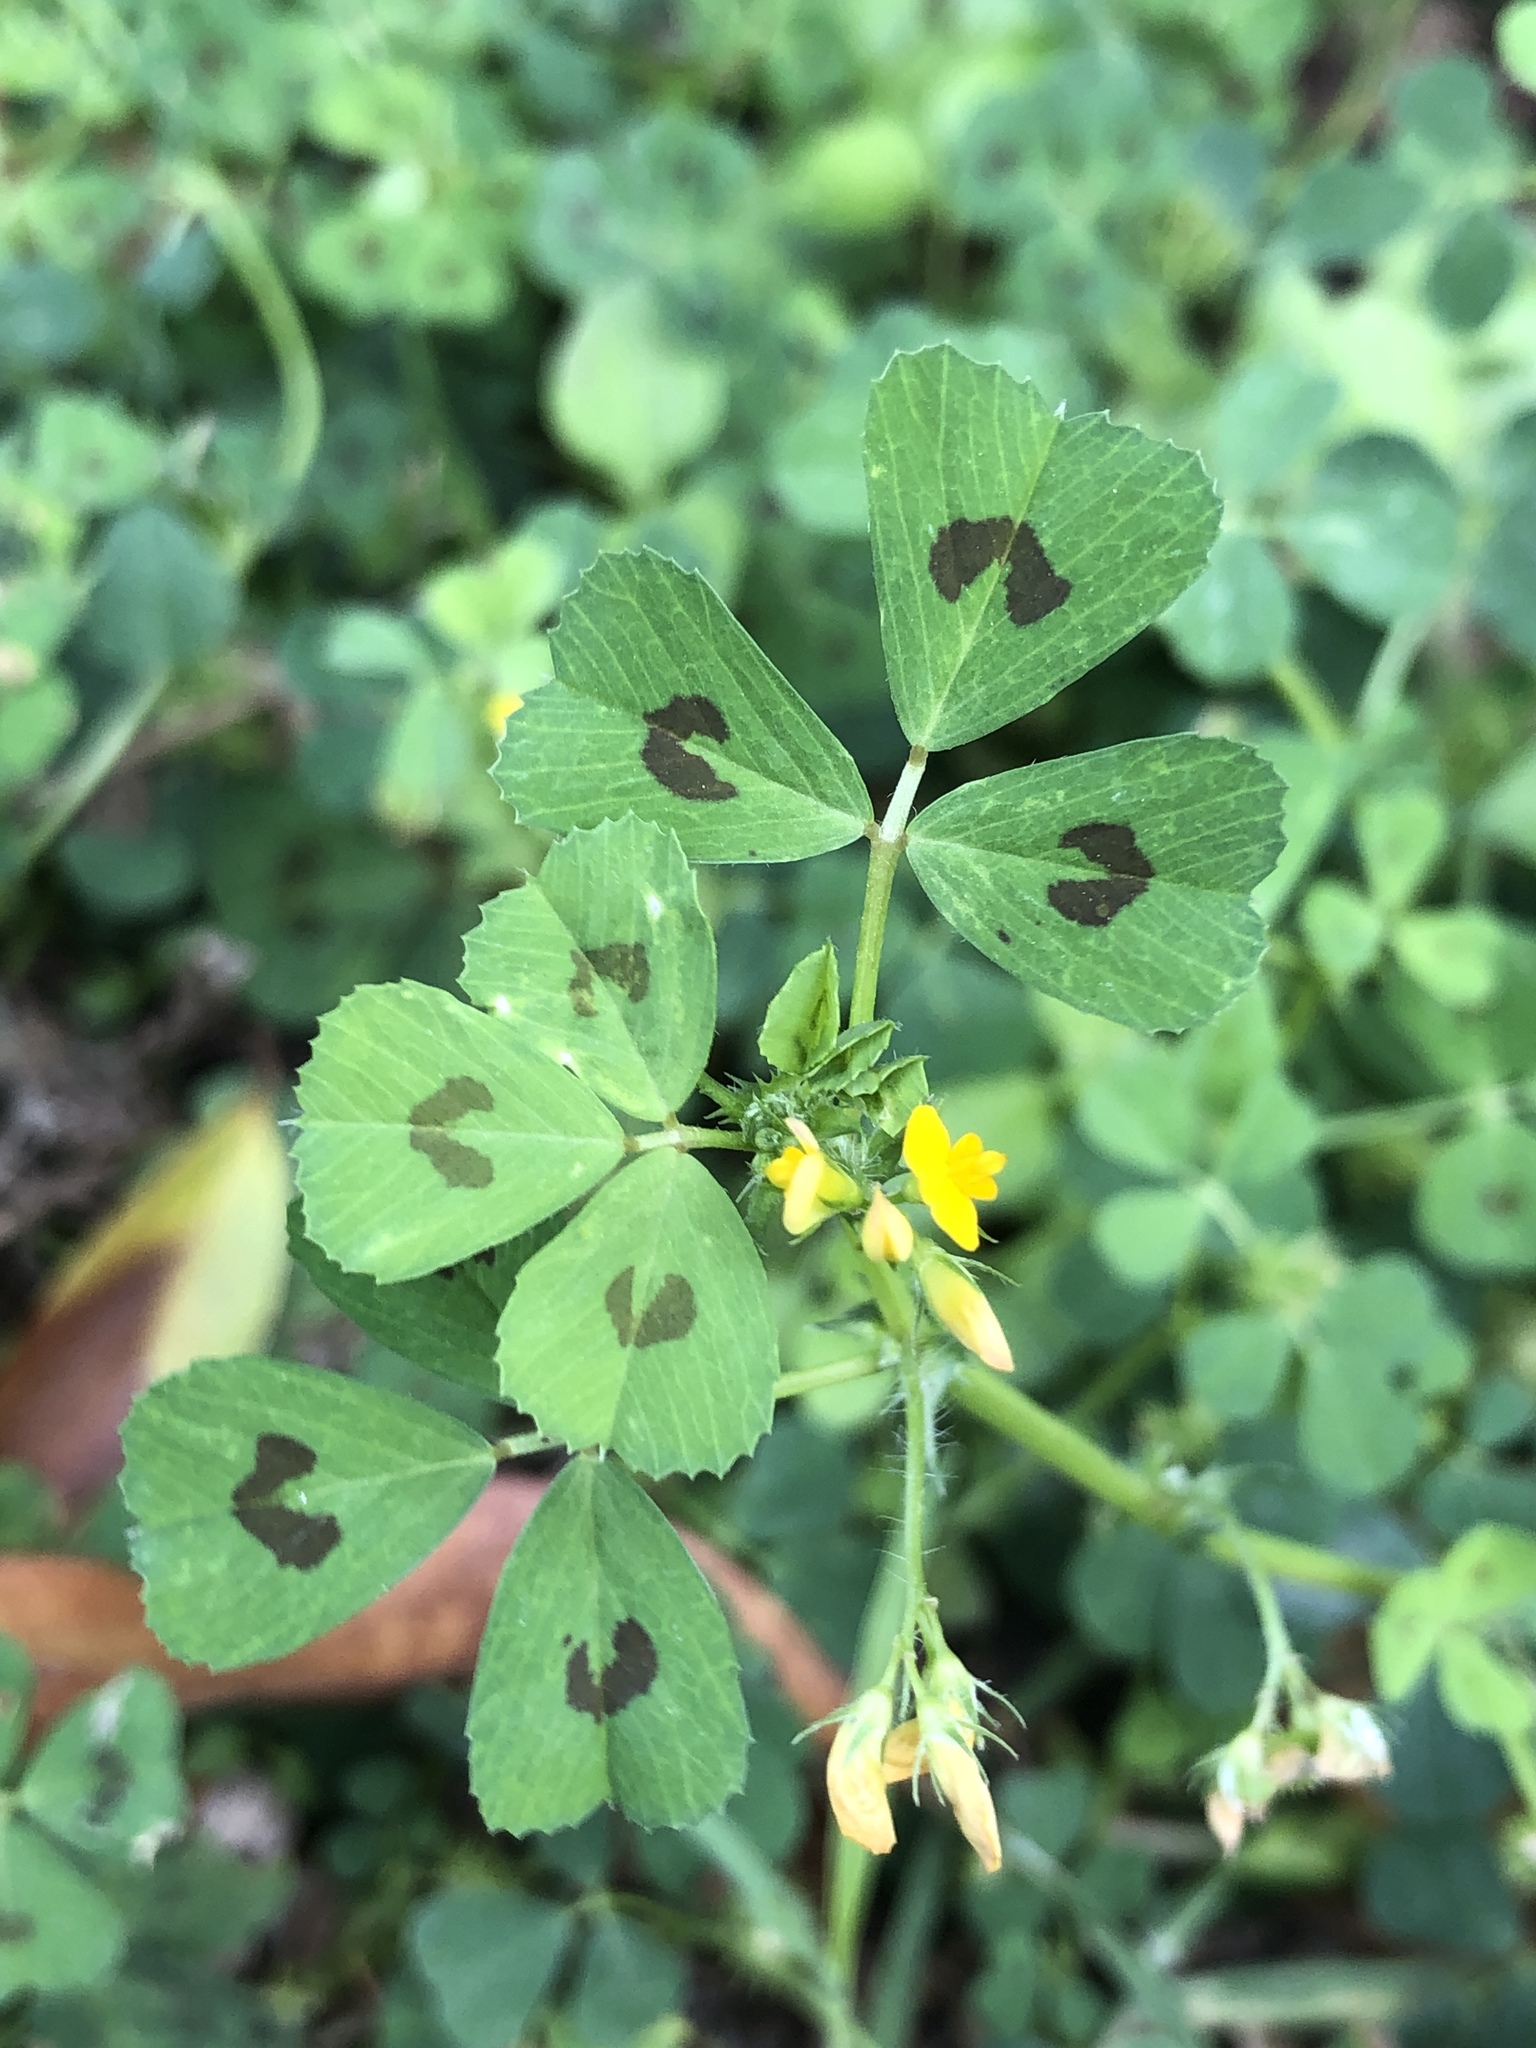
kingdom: Plantae
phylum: Tracheophyta
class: Magnoliopsida
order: Fabales
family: Fabaceae
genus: Medicago
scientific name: Medicago arabica
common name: Spotted medick
